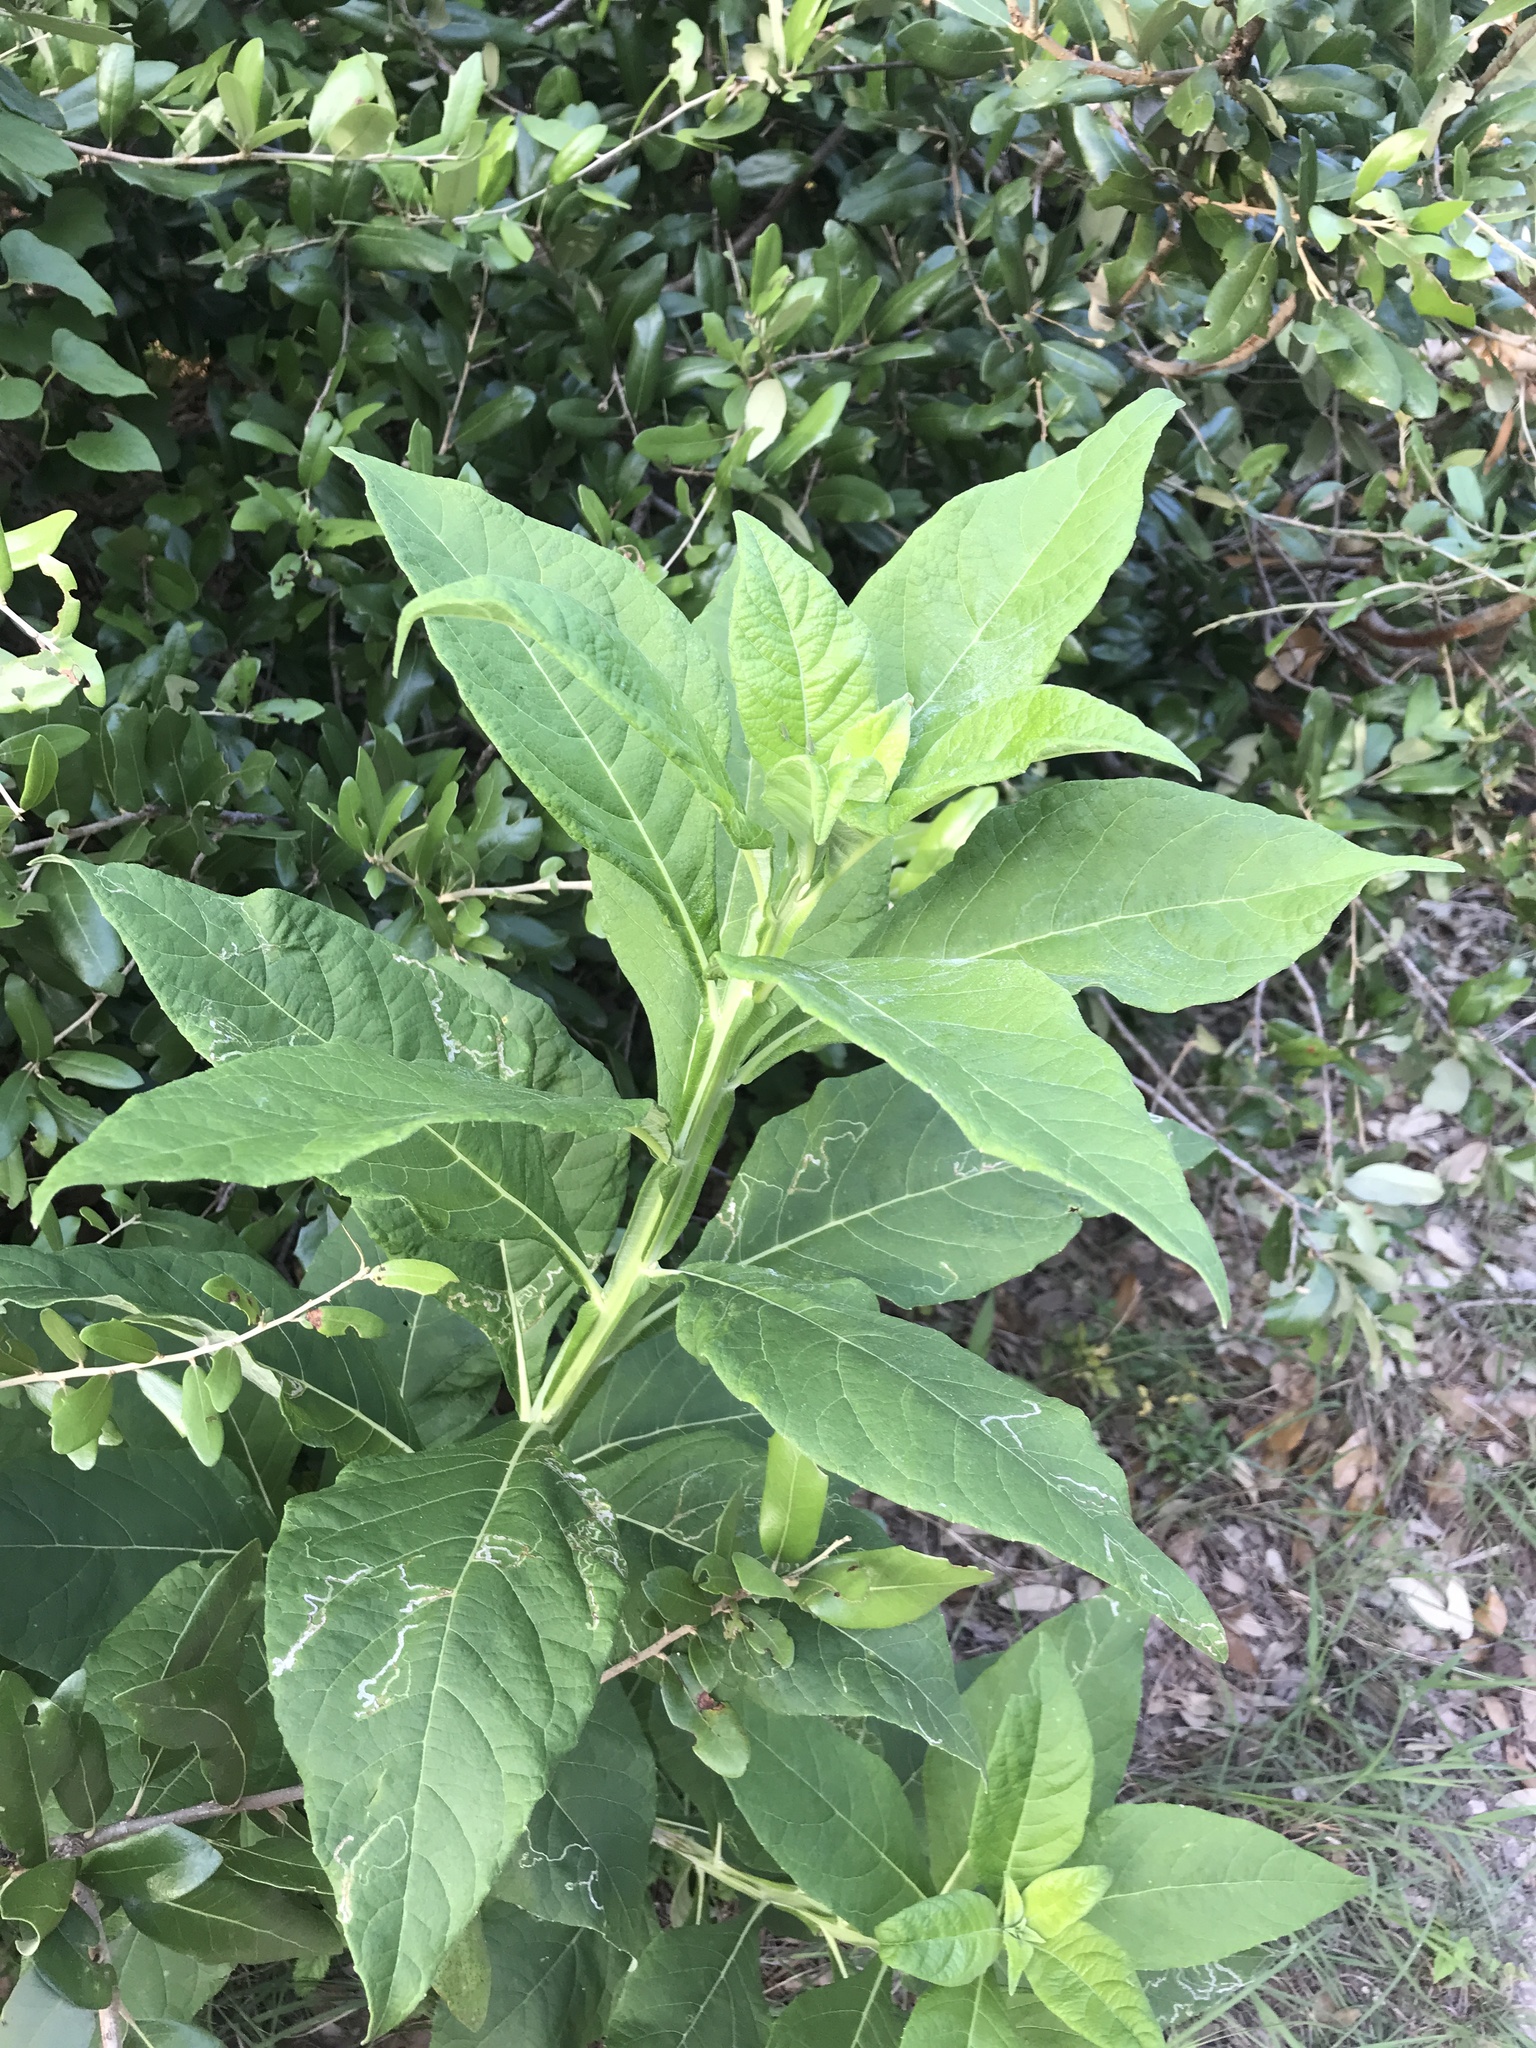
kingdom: Plantae
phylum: Tracheophyta
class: Magnoliopsida
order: Asterales
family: Asteraceae
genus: Verbesina
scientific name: Verbesina virginica
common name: Frostweed
